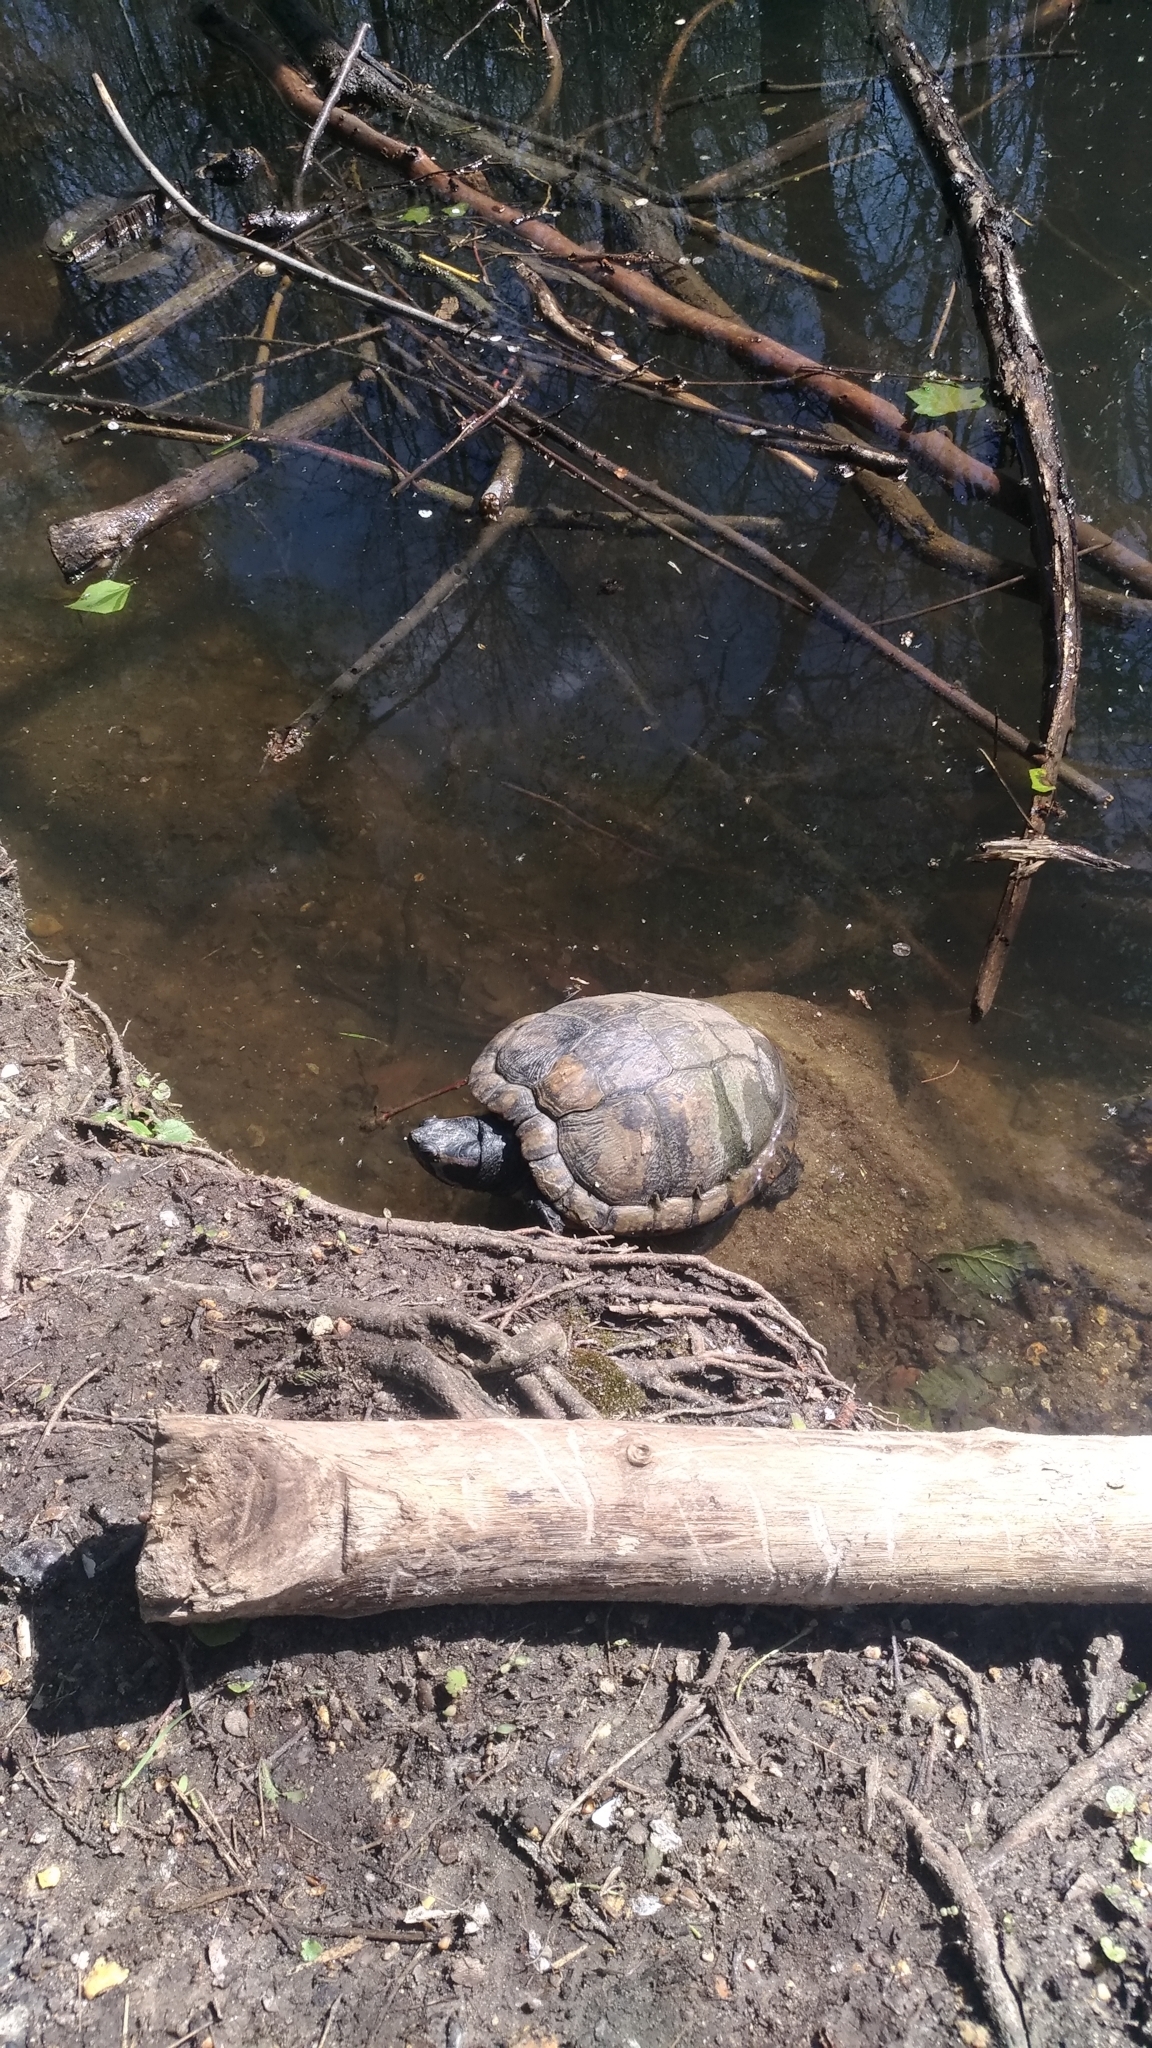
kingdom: Animalia
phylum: Chordata
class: Testudines
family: Emydidae
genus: Trachemys
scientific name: Trachemys scripta
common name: Slider
